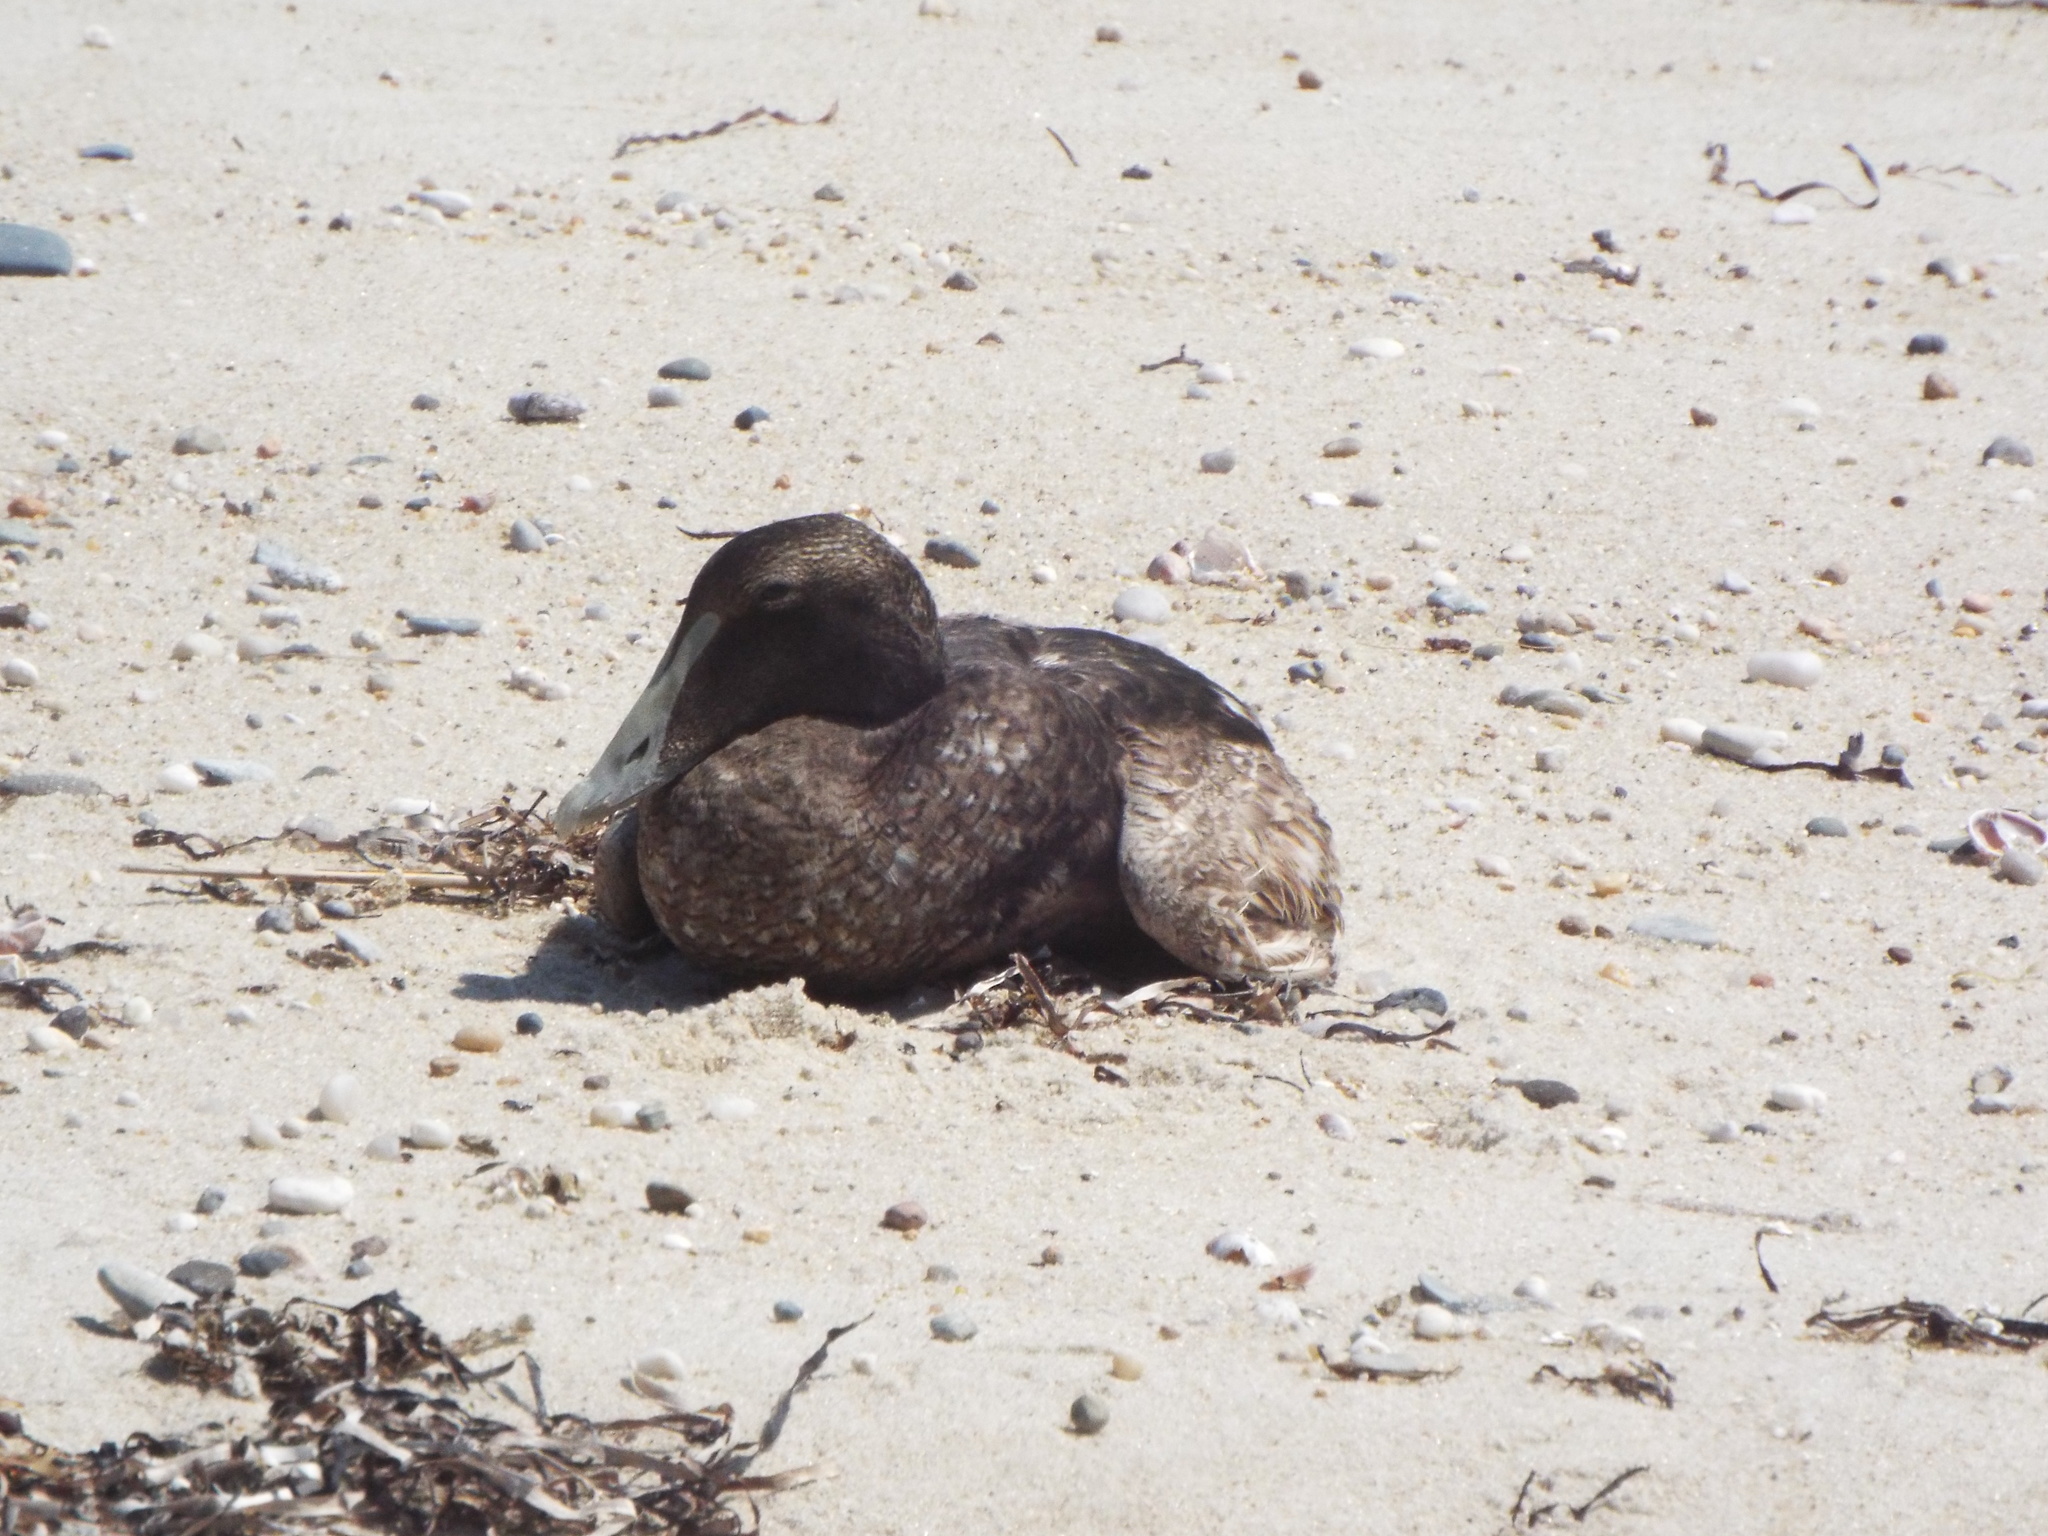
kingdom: Animalia
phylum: Chordata
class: Aves
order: Anseriformes
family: Anatidae
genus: Somateria
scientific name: Somateria mollissima
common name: Common eider
